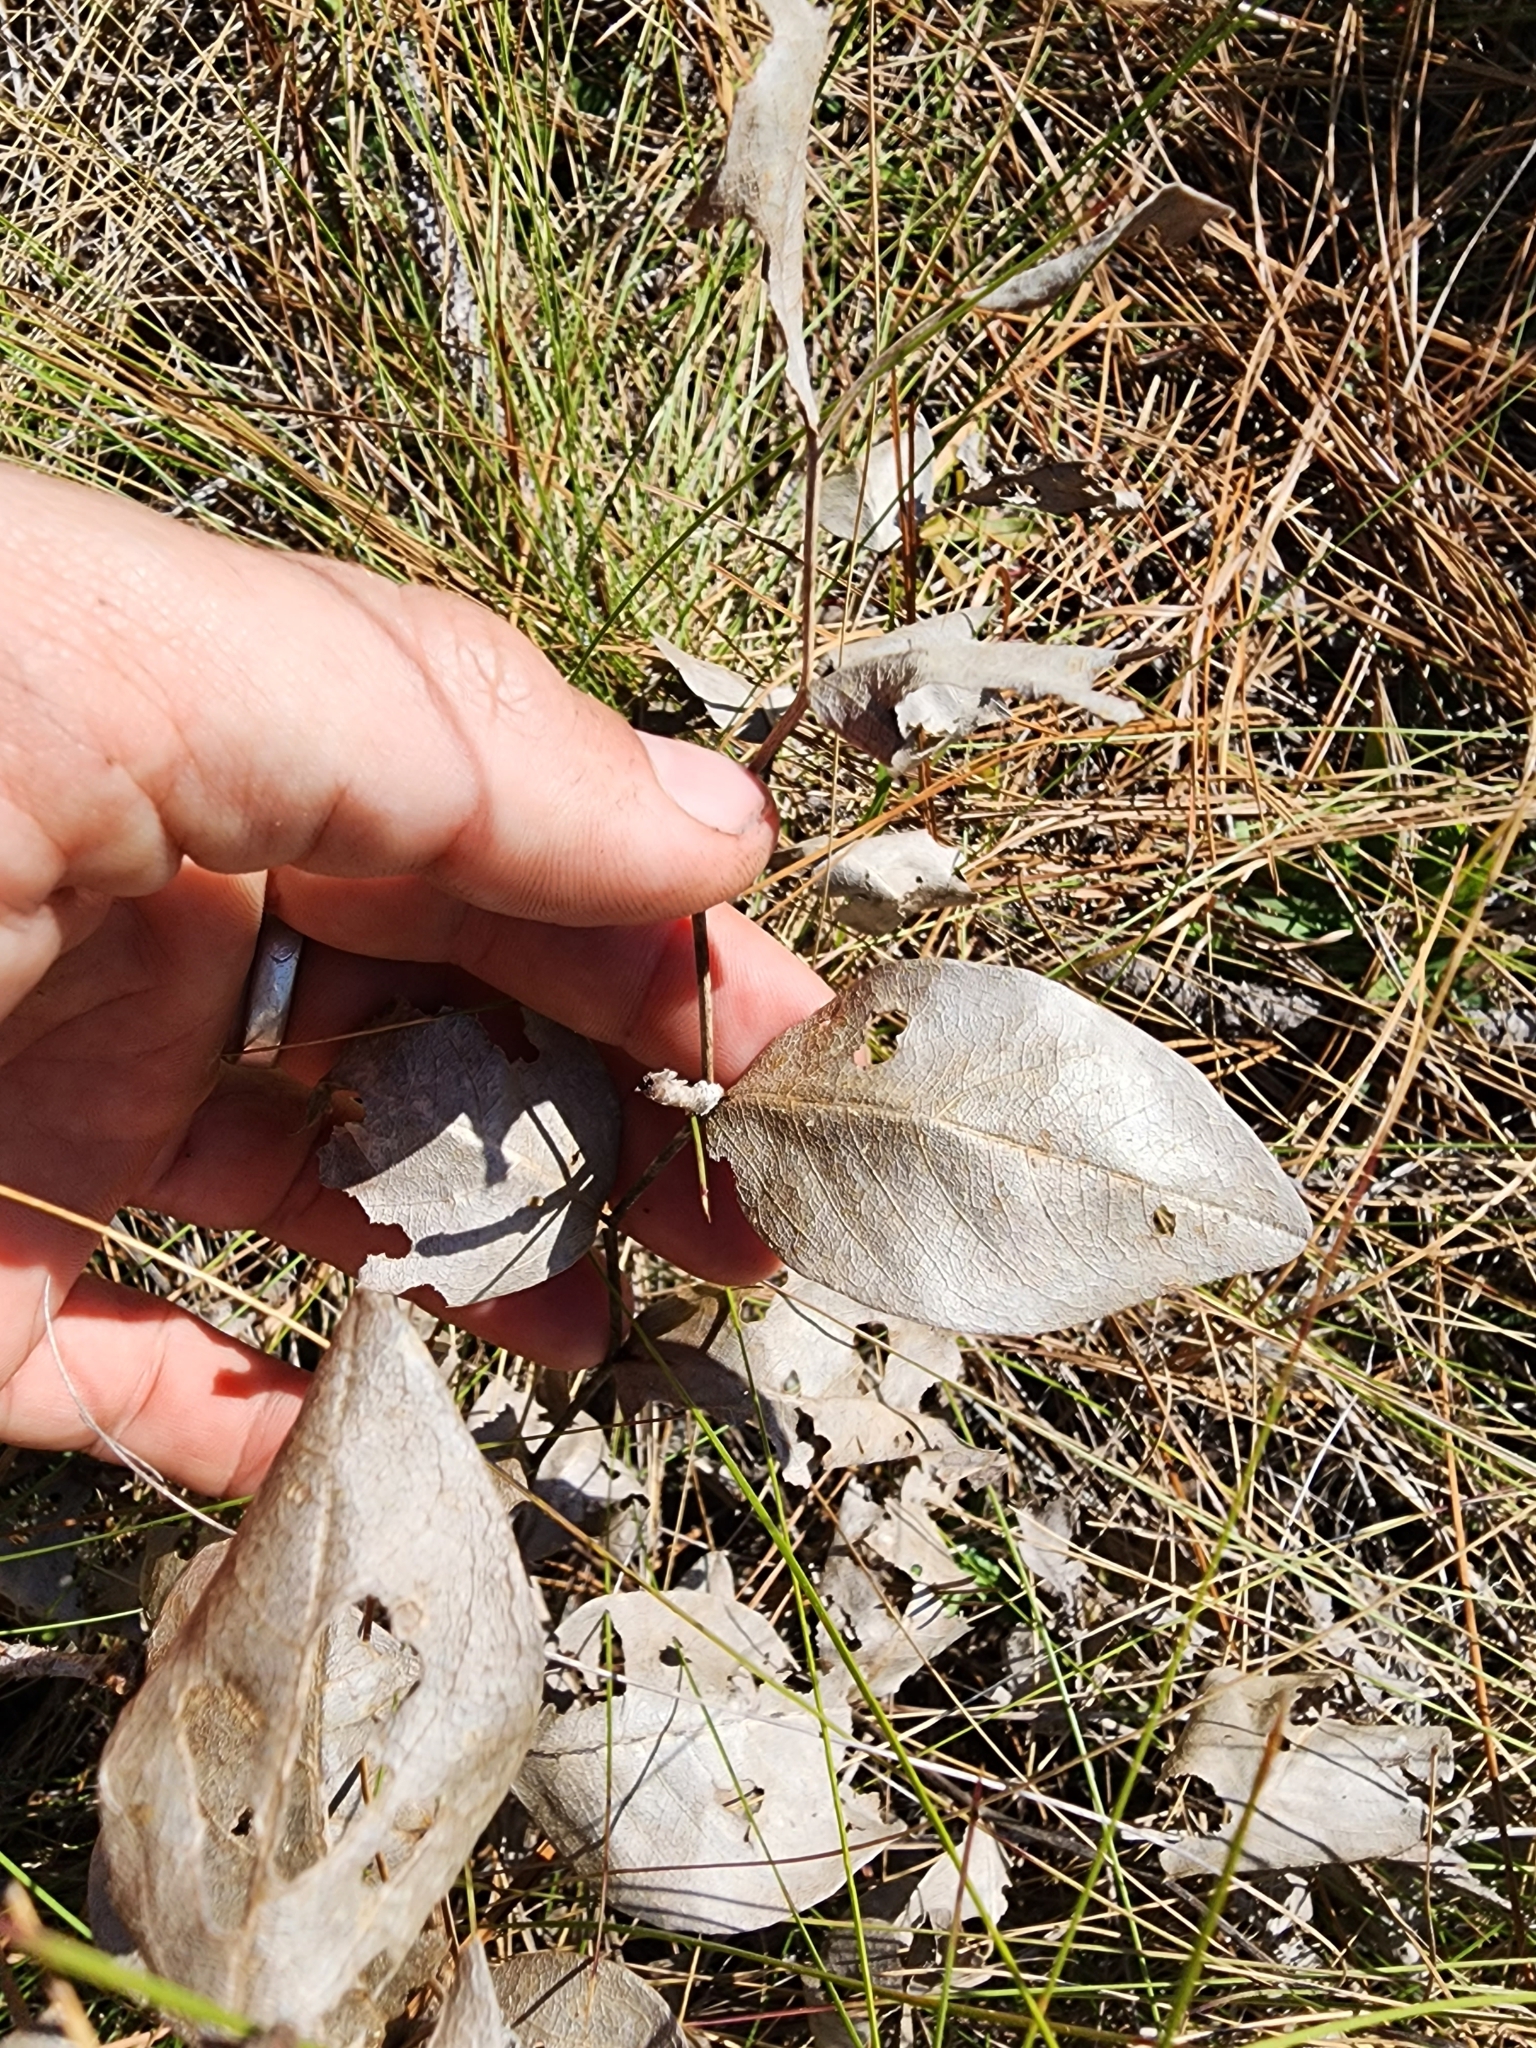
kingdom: Plantae
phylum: Tracheophyta
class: Magnoliopsida
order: Fabales
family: Fabaceae
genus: Baptisia
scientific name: Baptisia simplicifolia
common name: Scareweed
